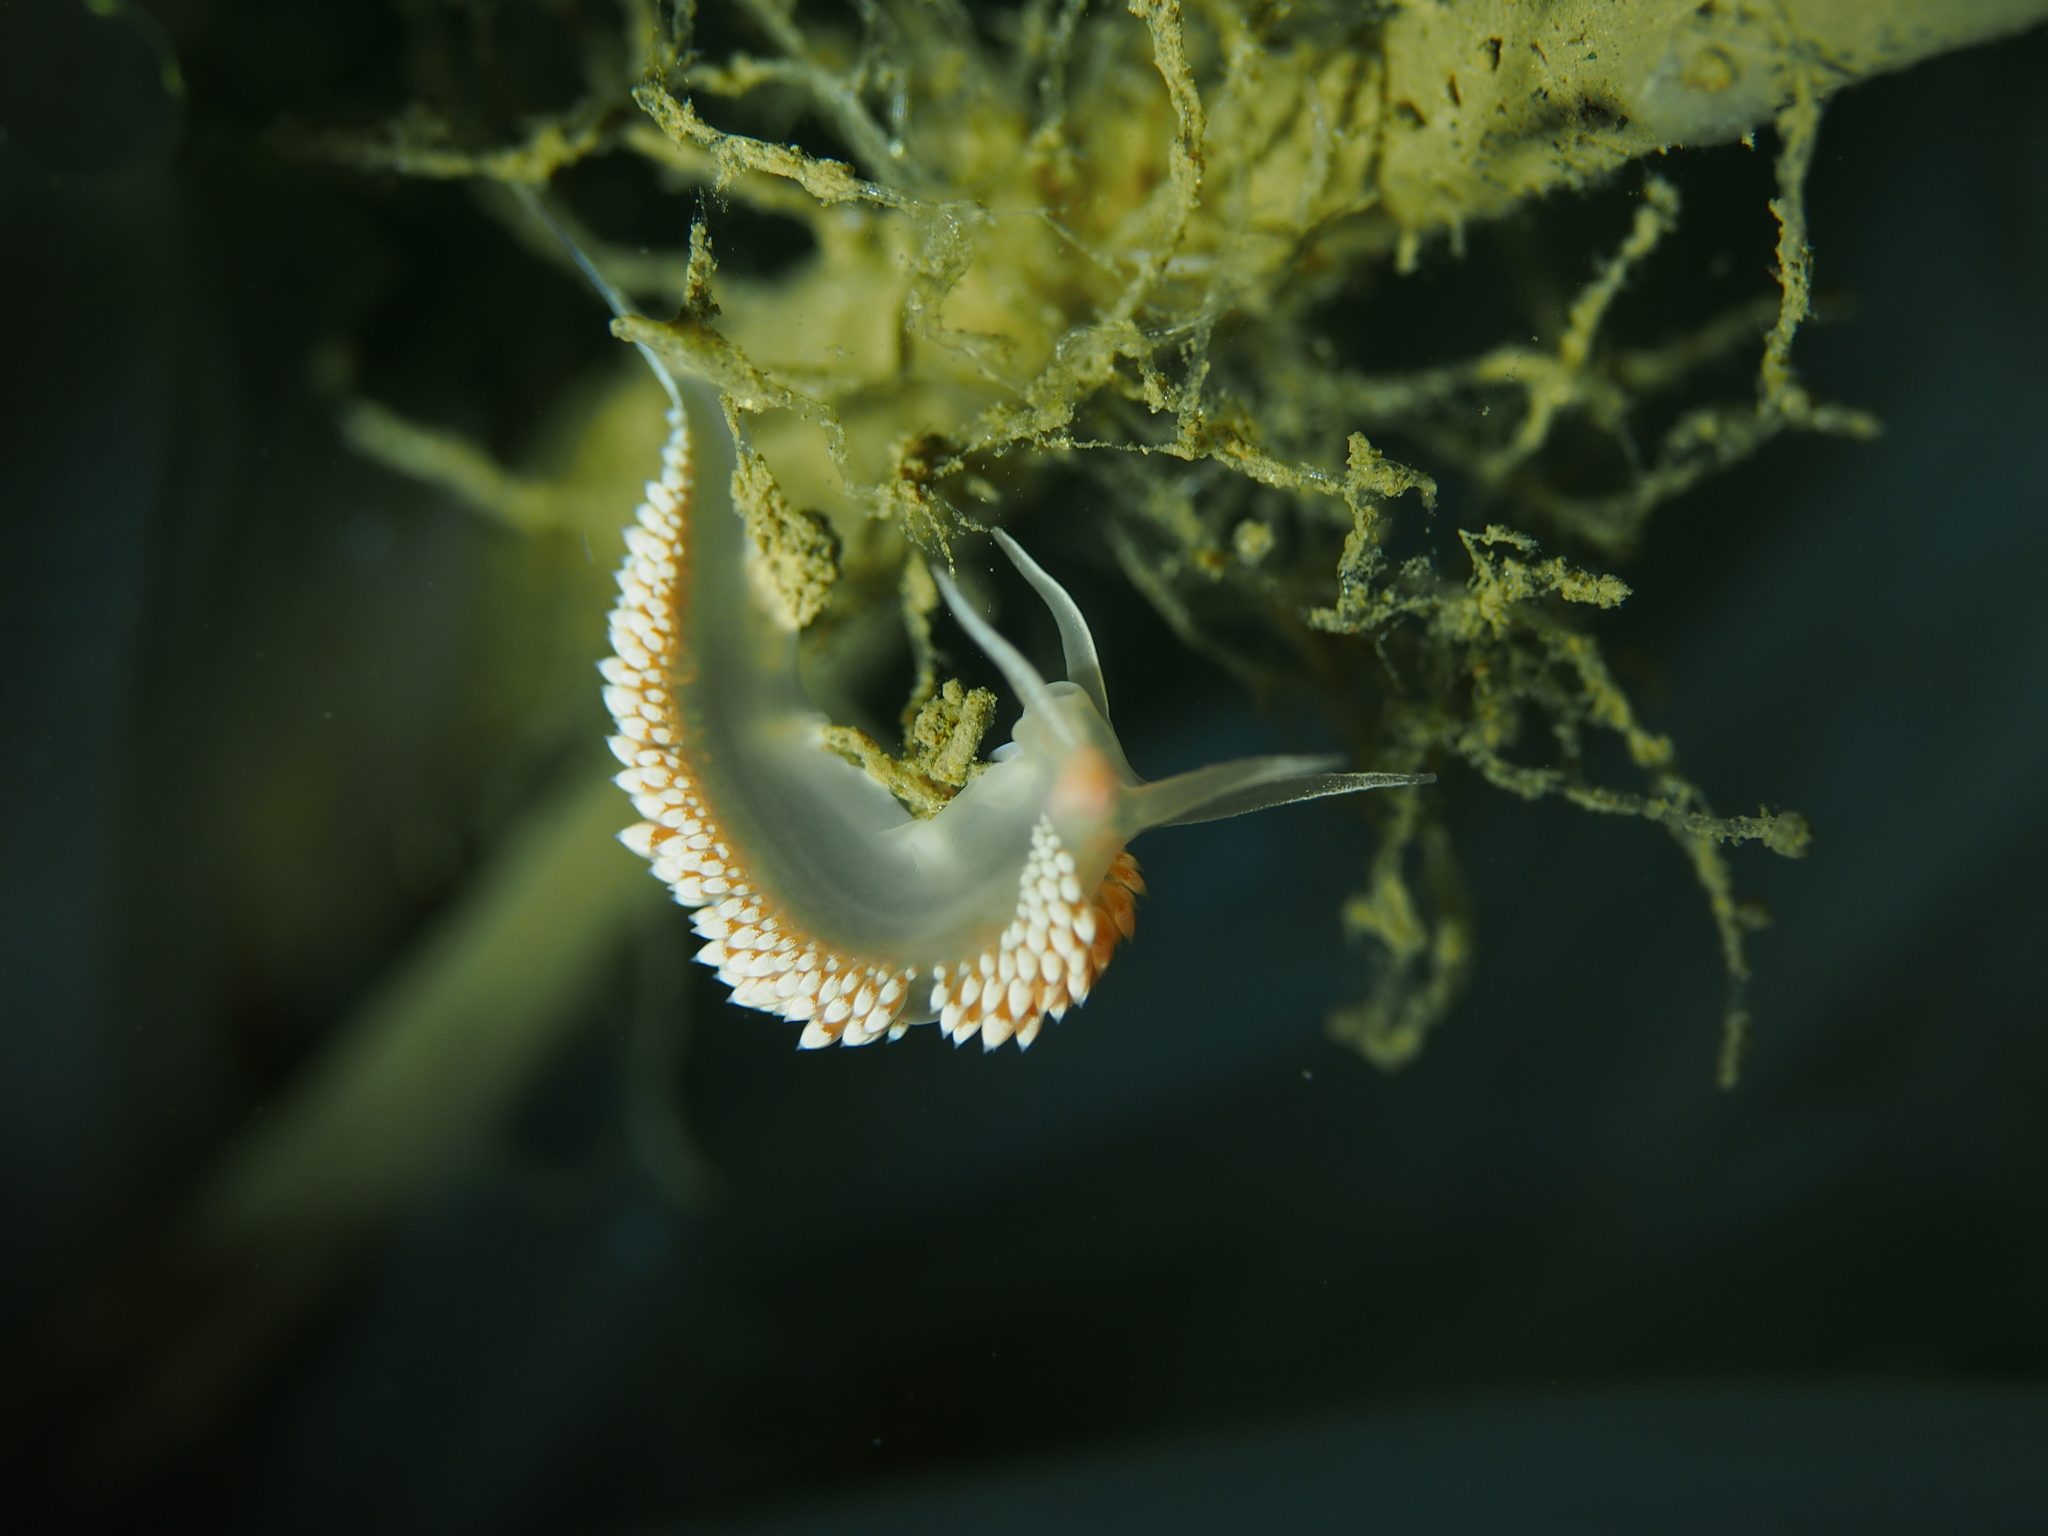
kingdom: Animalia
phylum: Mollusca
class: Gastropoda
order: Nudibranchia
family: Coryphellidae
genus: Coryphella
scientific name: Coryphella verrucosa
